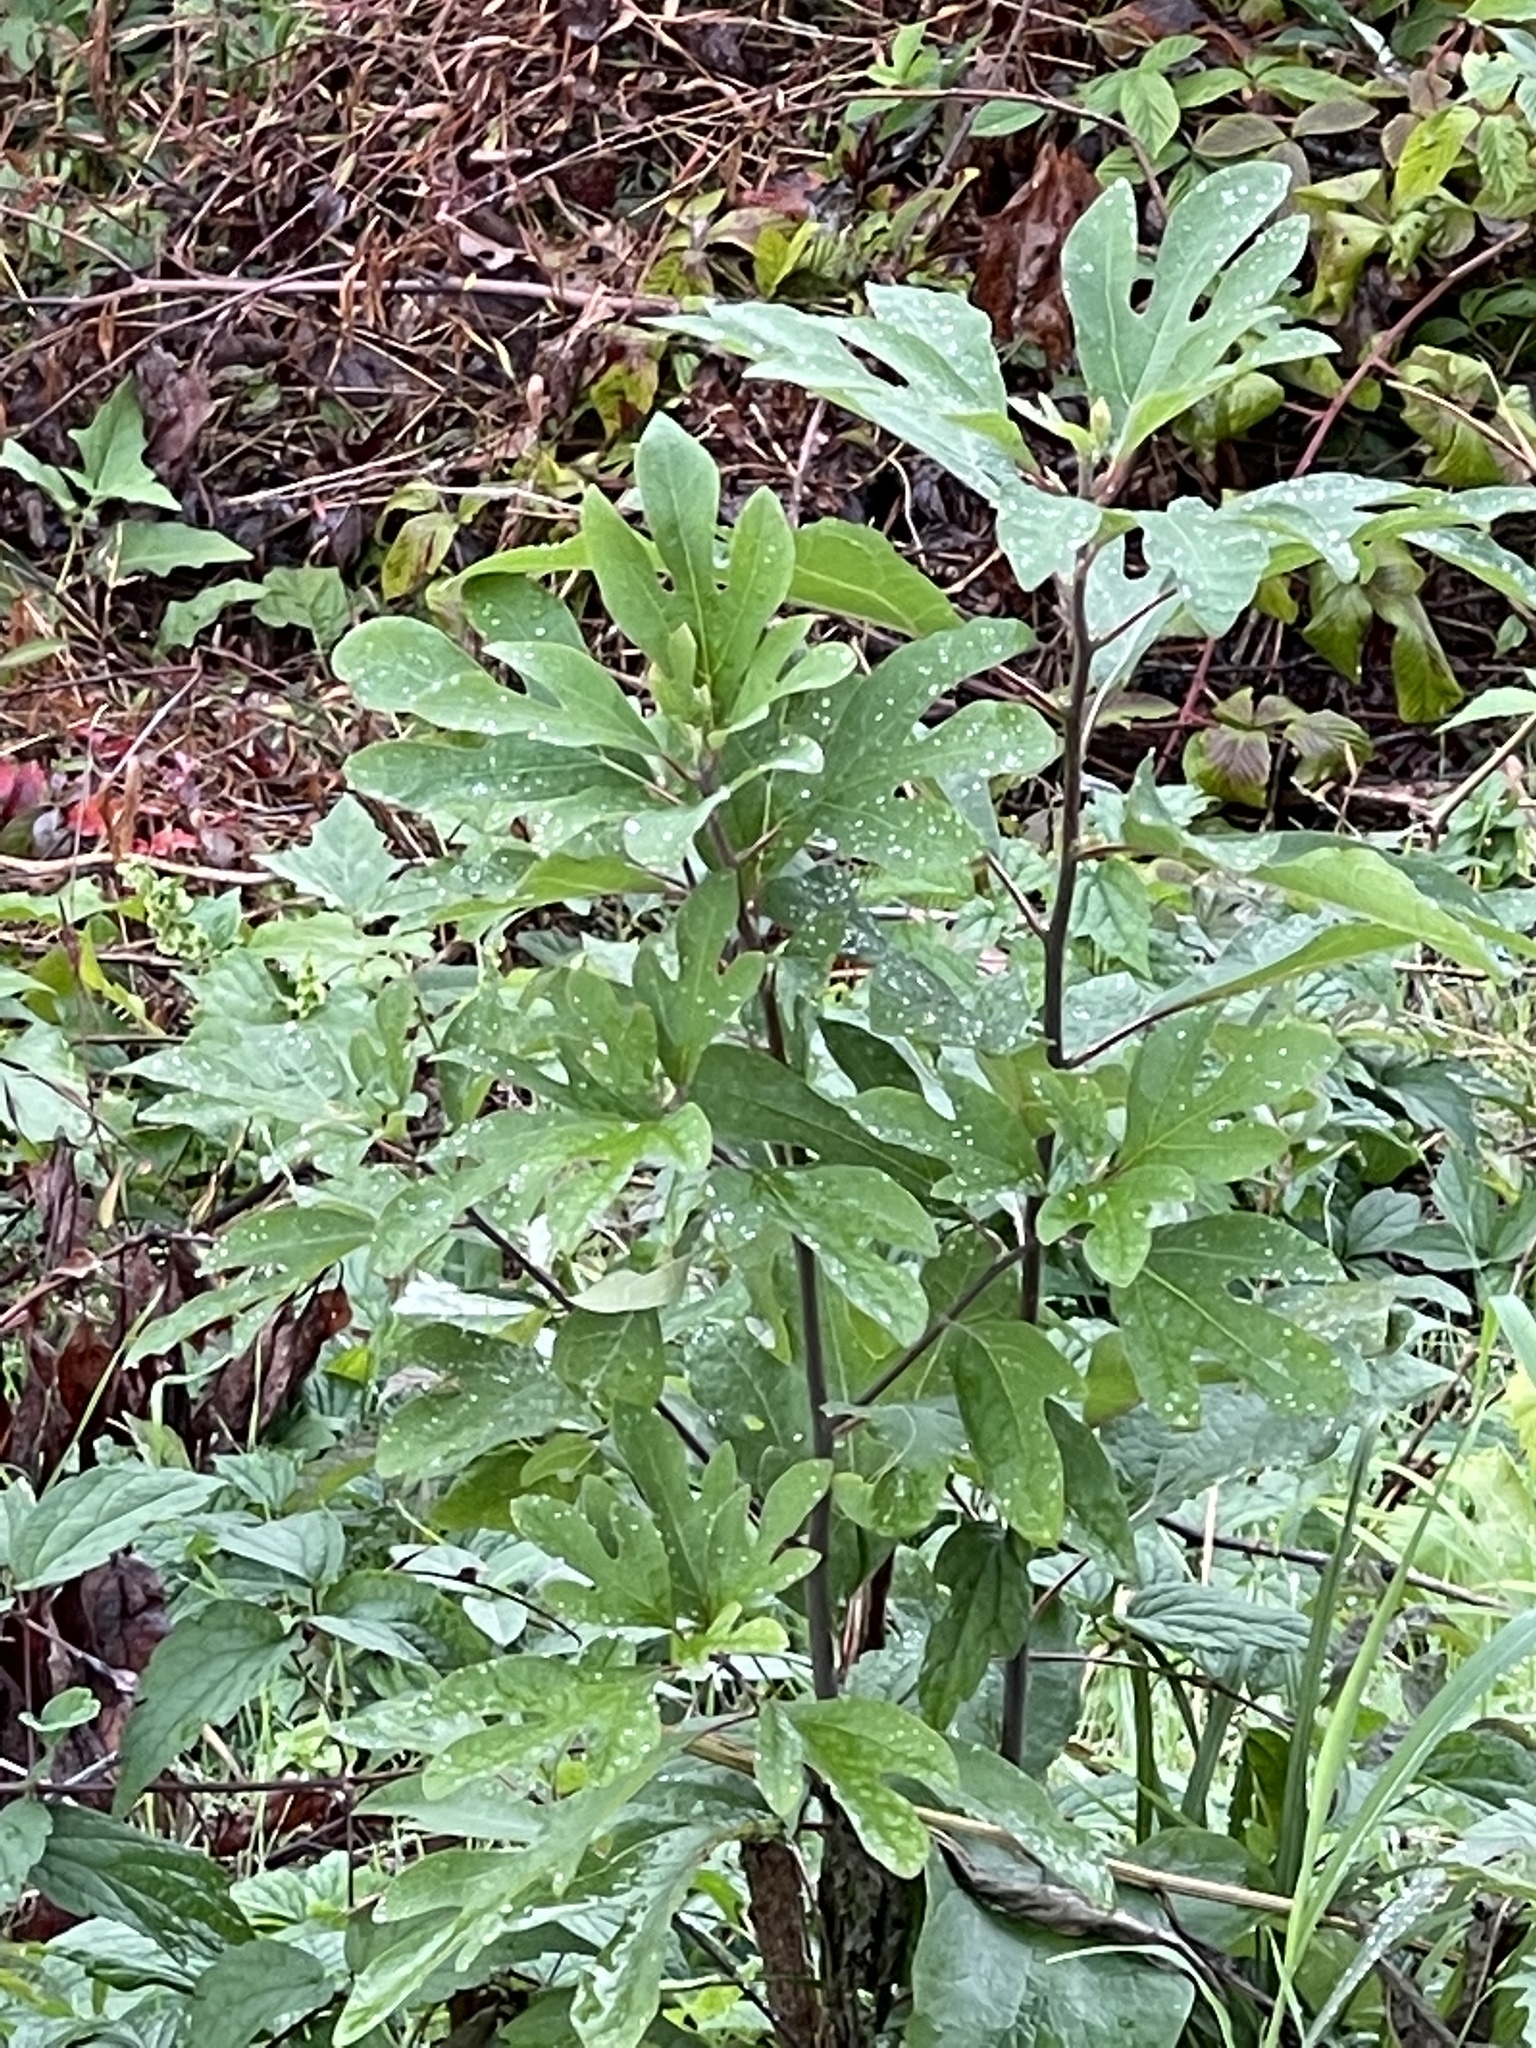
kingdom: Plantae
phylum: Tracheophyta
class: Magnoliopsida
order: Laurales
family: Lauraceae
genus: Sassafras
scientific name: Sassafras albidum
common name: Sassafras
